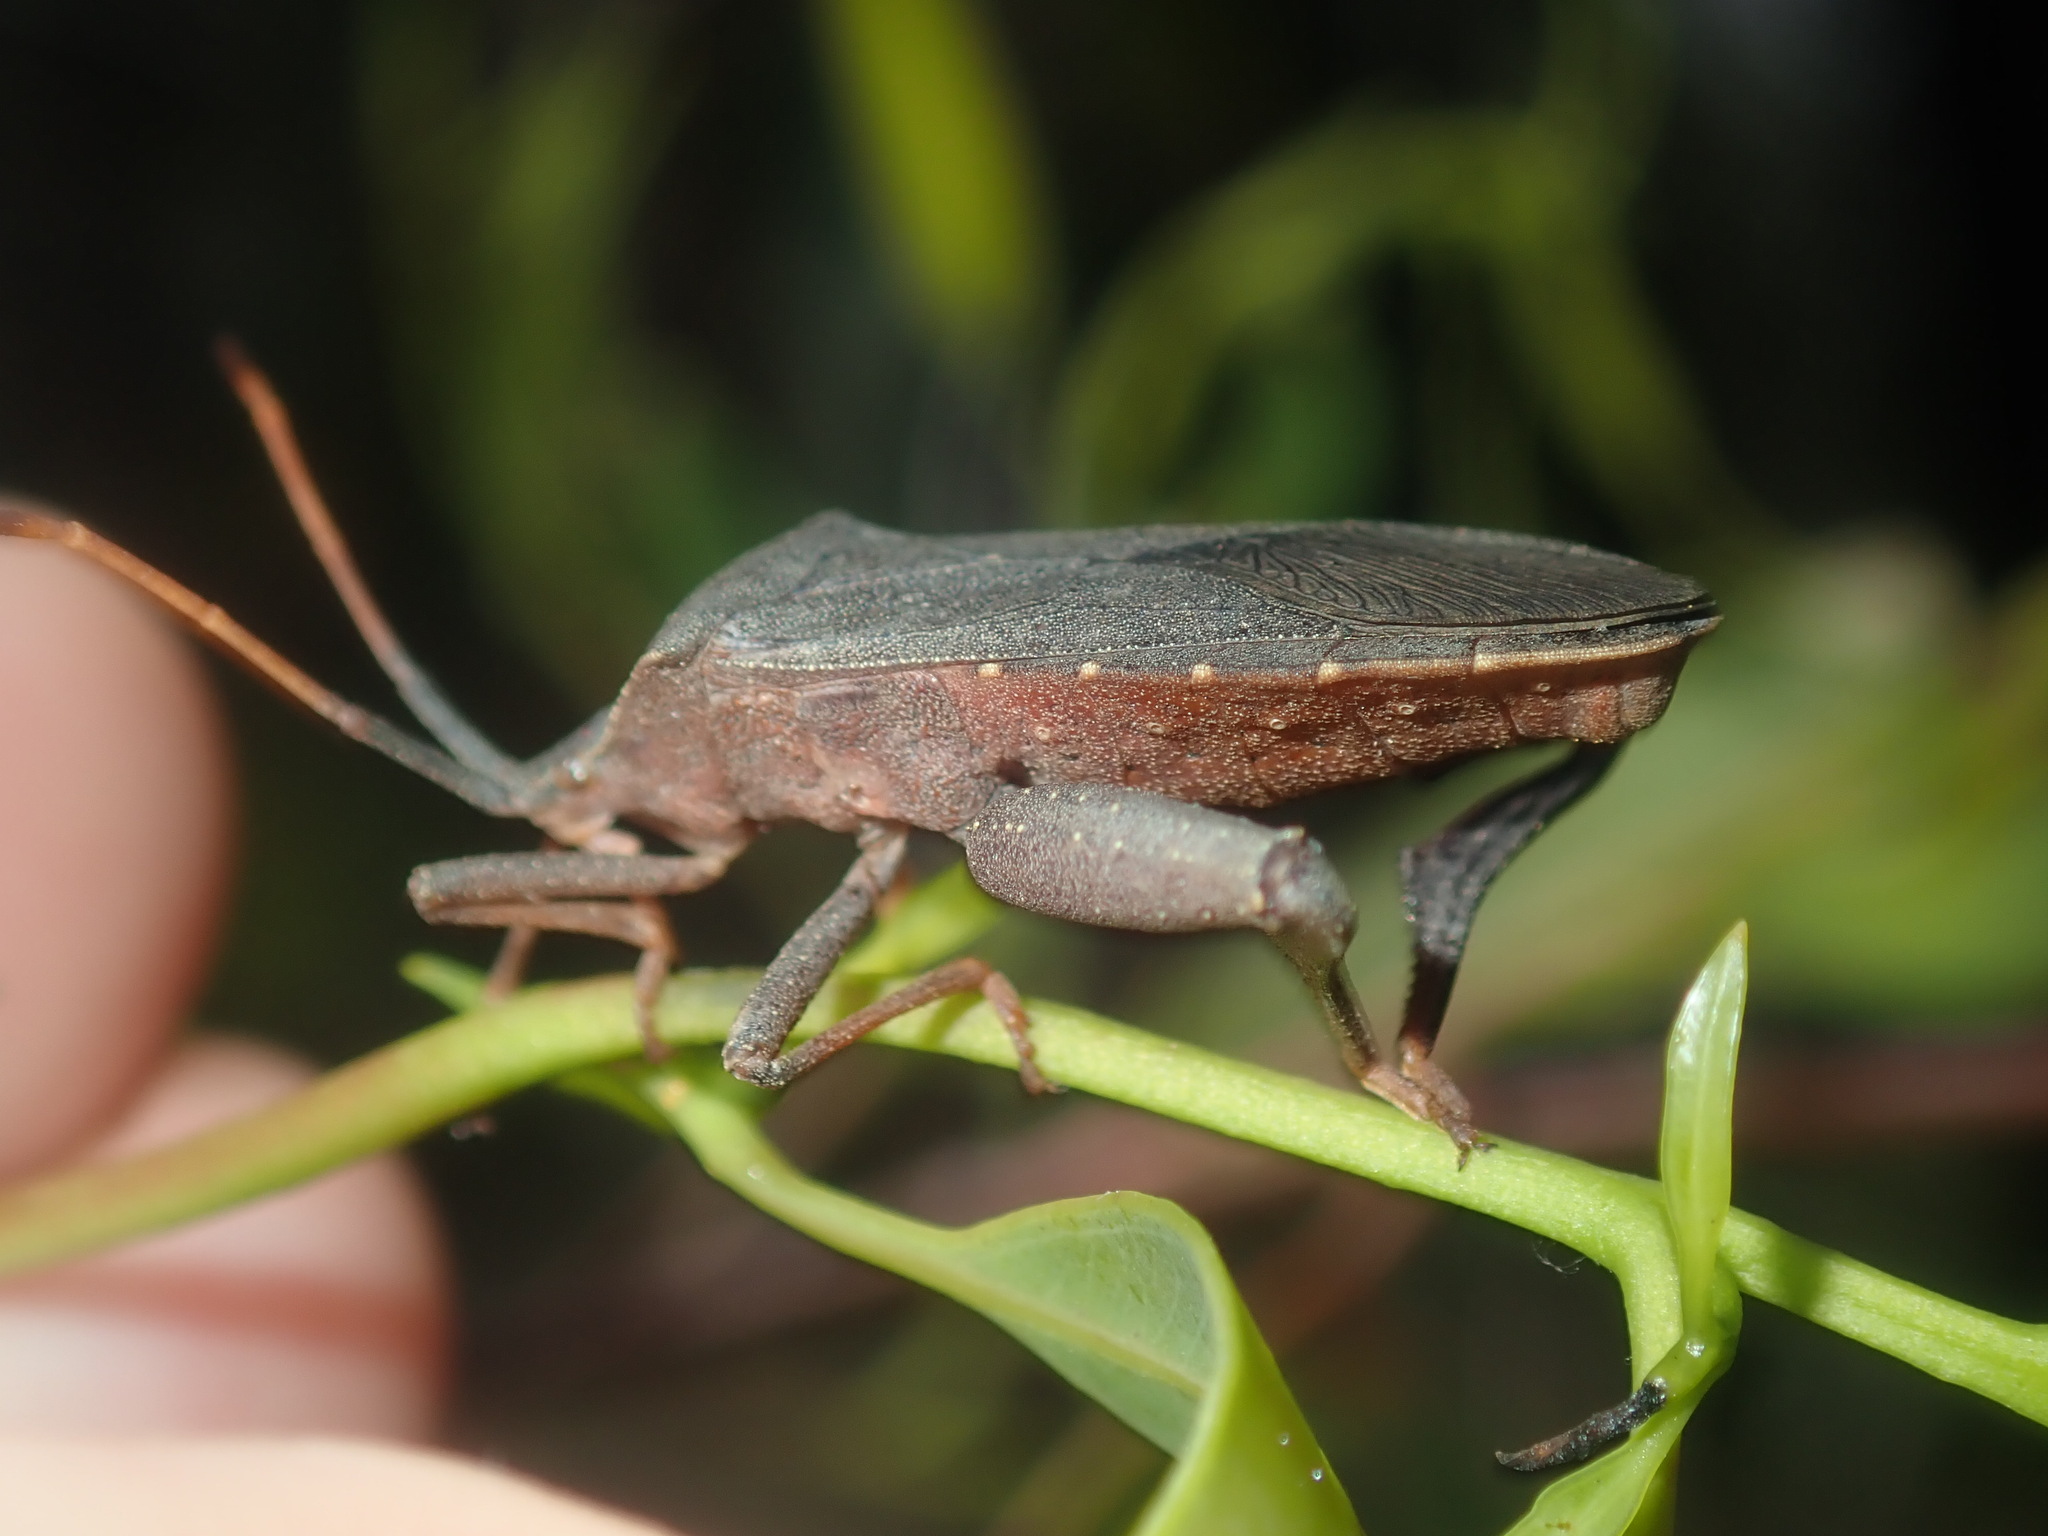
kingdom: Animalia
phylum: Arthropoda
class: Insecta
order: Hemiptera
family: Coreidae
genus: Amorbus
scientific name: Amorbus rubiginosus
